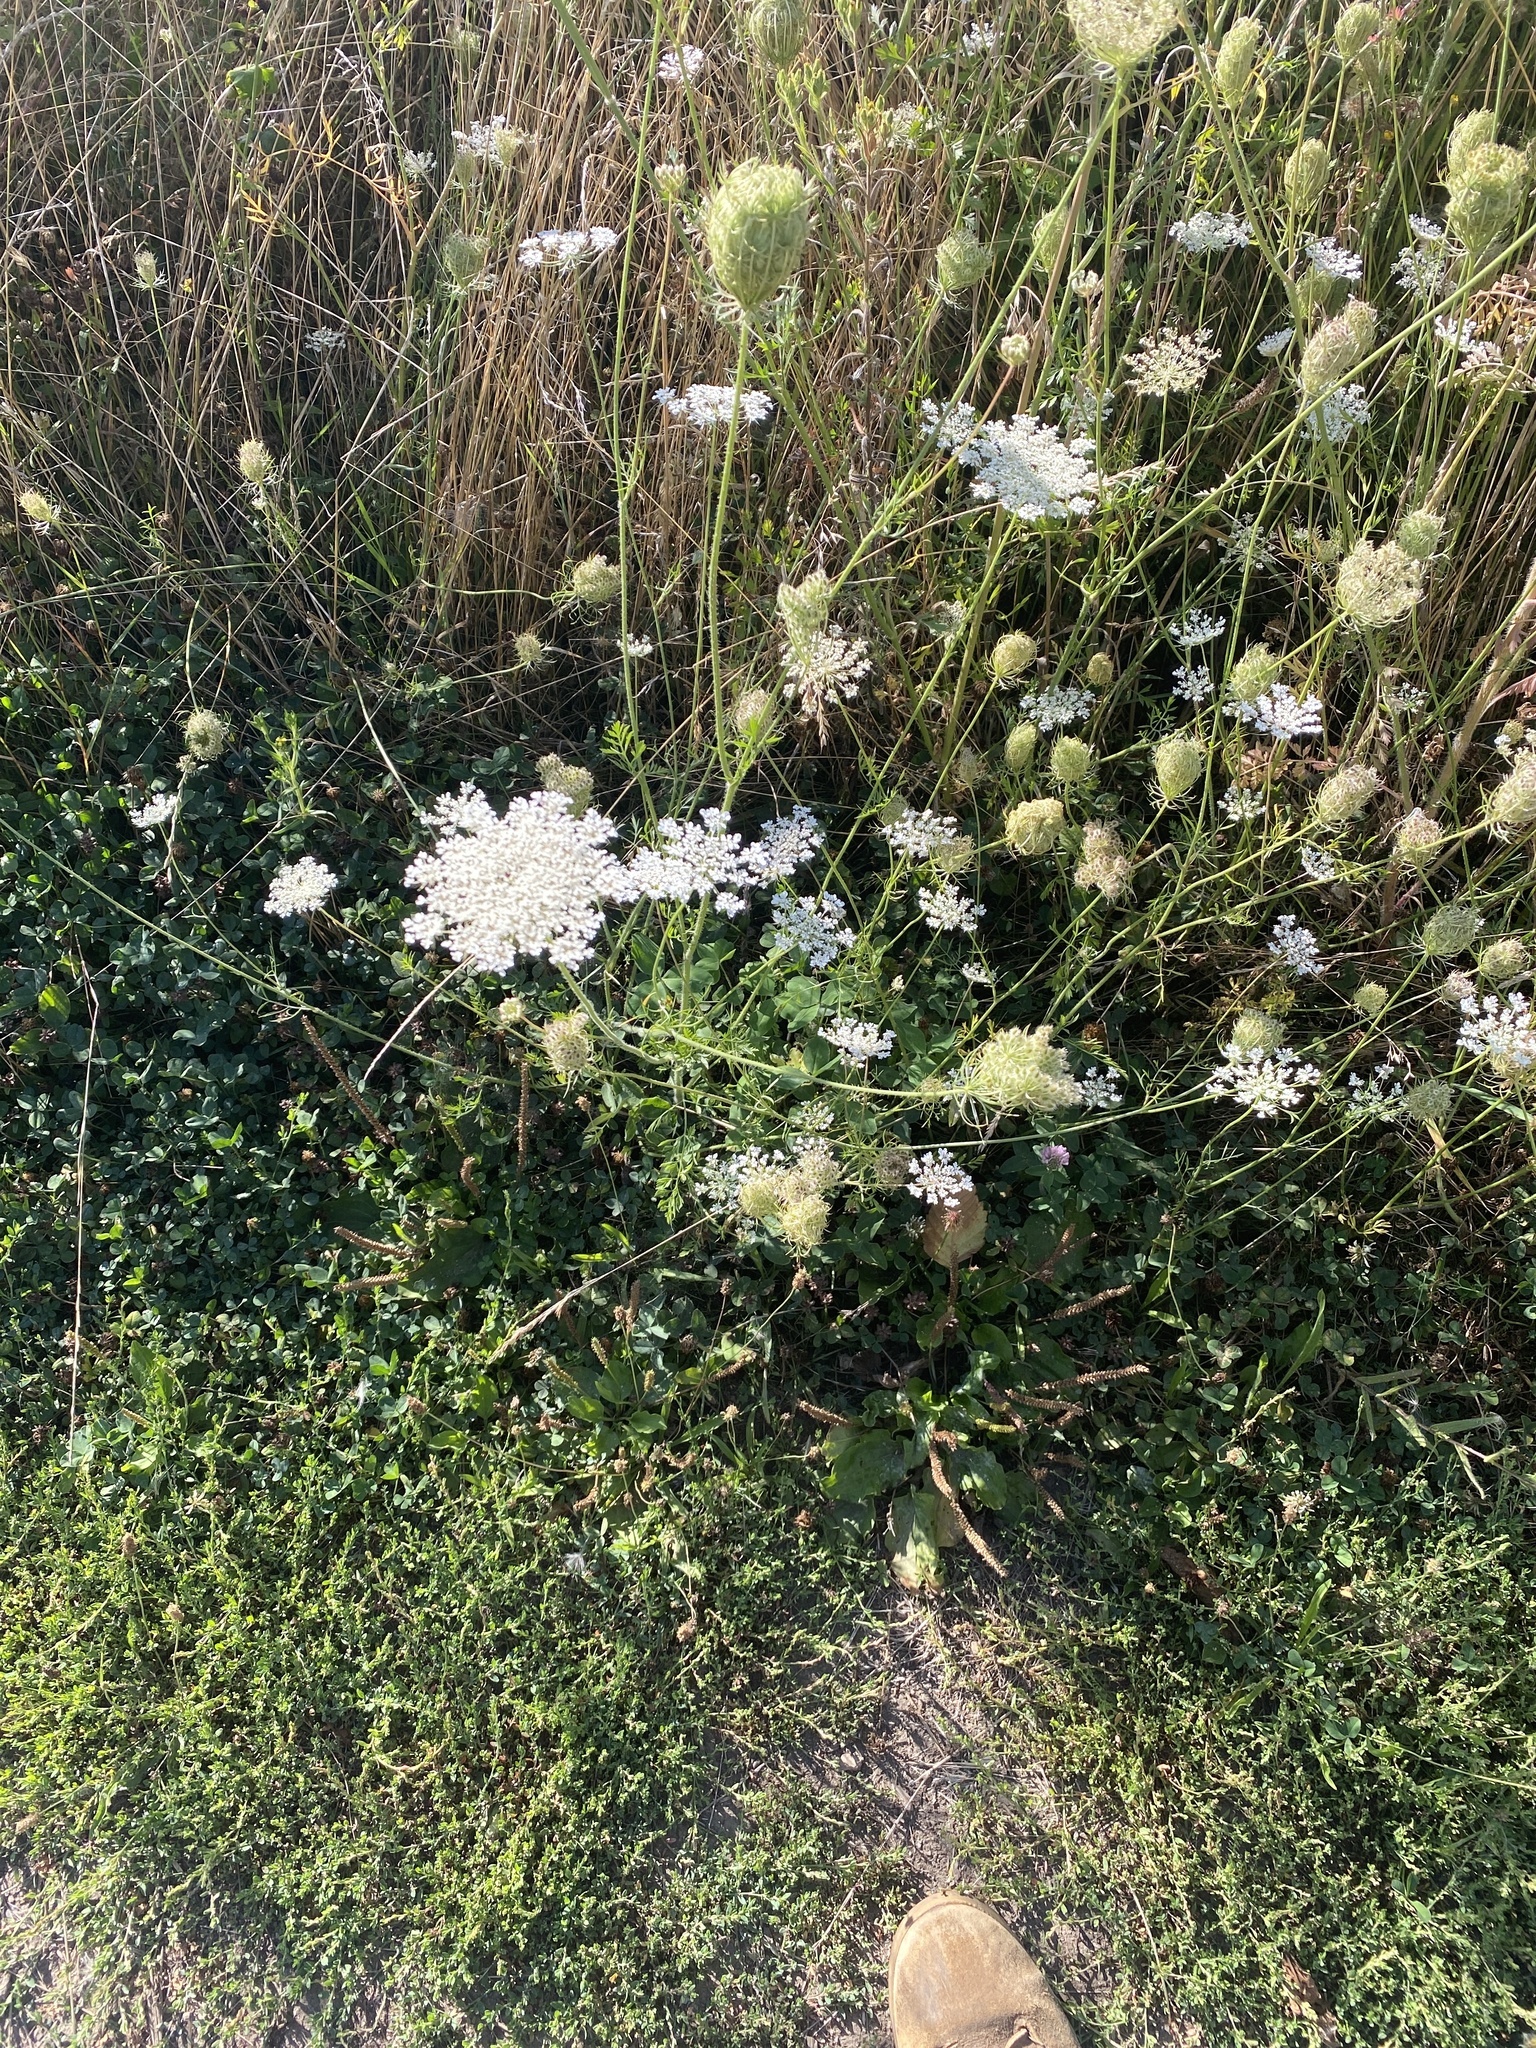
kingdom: Plantae
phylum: Tracheophyta
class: Magnoliopsida
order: Apiales
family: Apiaceae
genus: Daucus
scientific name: Daucus carota
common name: Wild carrot
